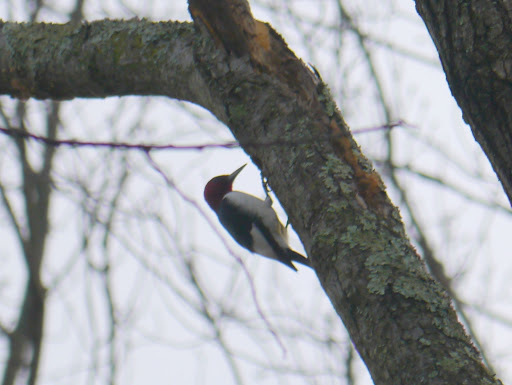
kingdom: Animalia
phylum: Chordata
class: Aves
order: Piciformes
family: Picidae
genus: Melanerpes
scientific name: Melanerpes erythrocephalus
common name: Red-headed woodpecker
